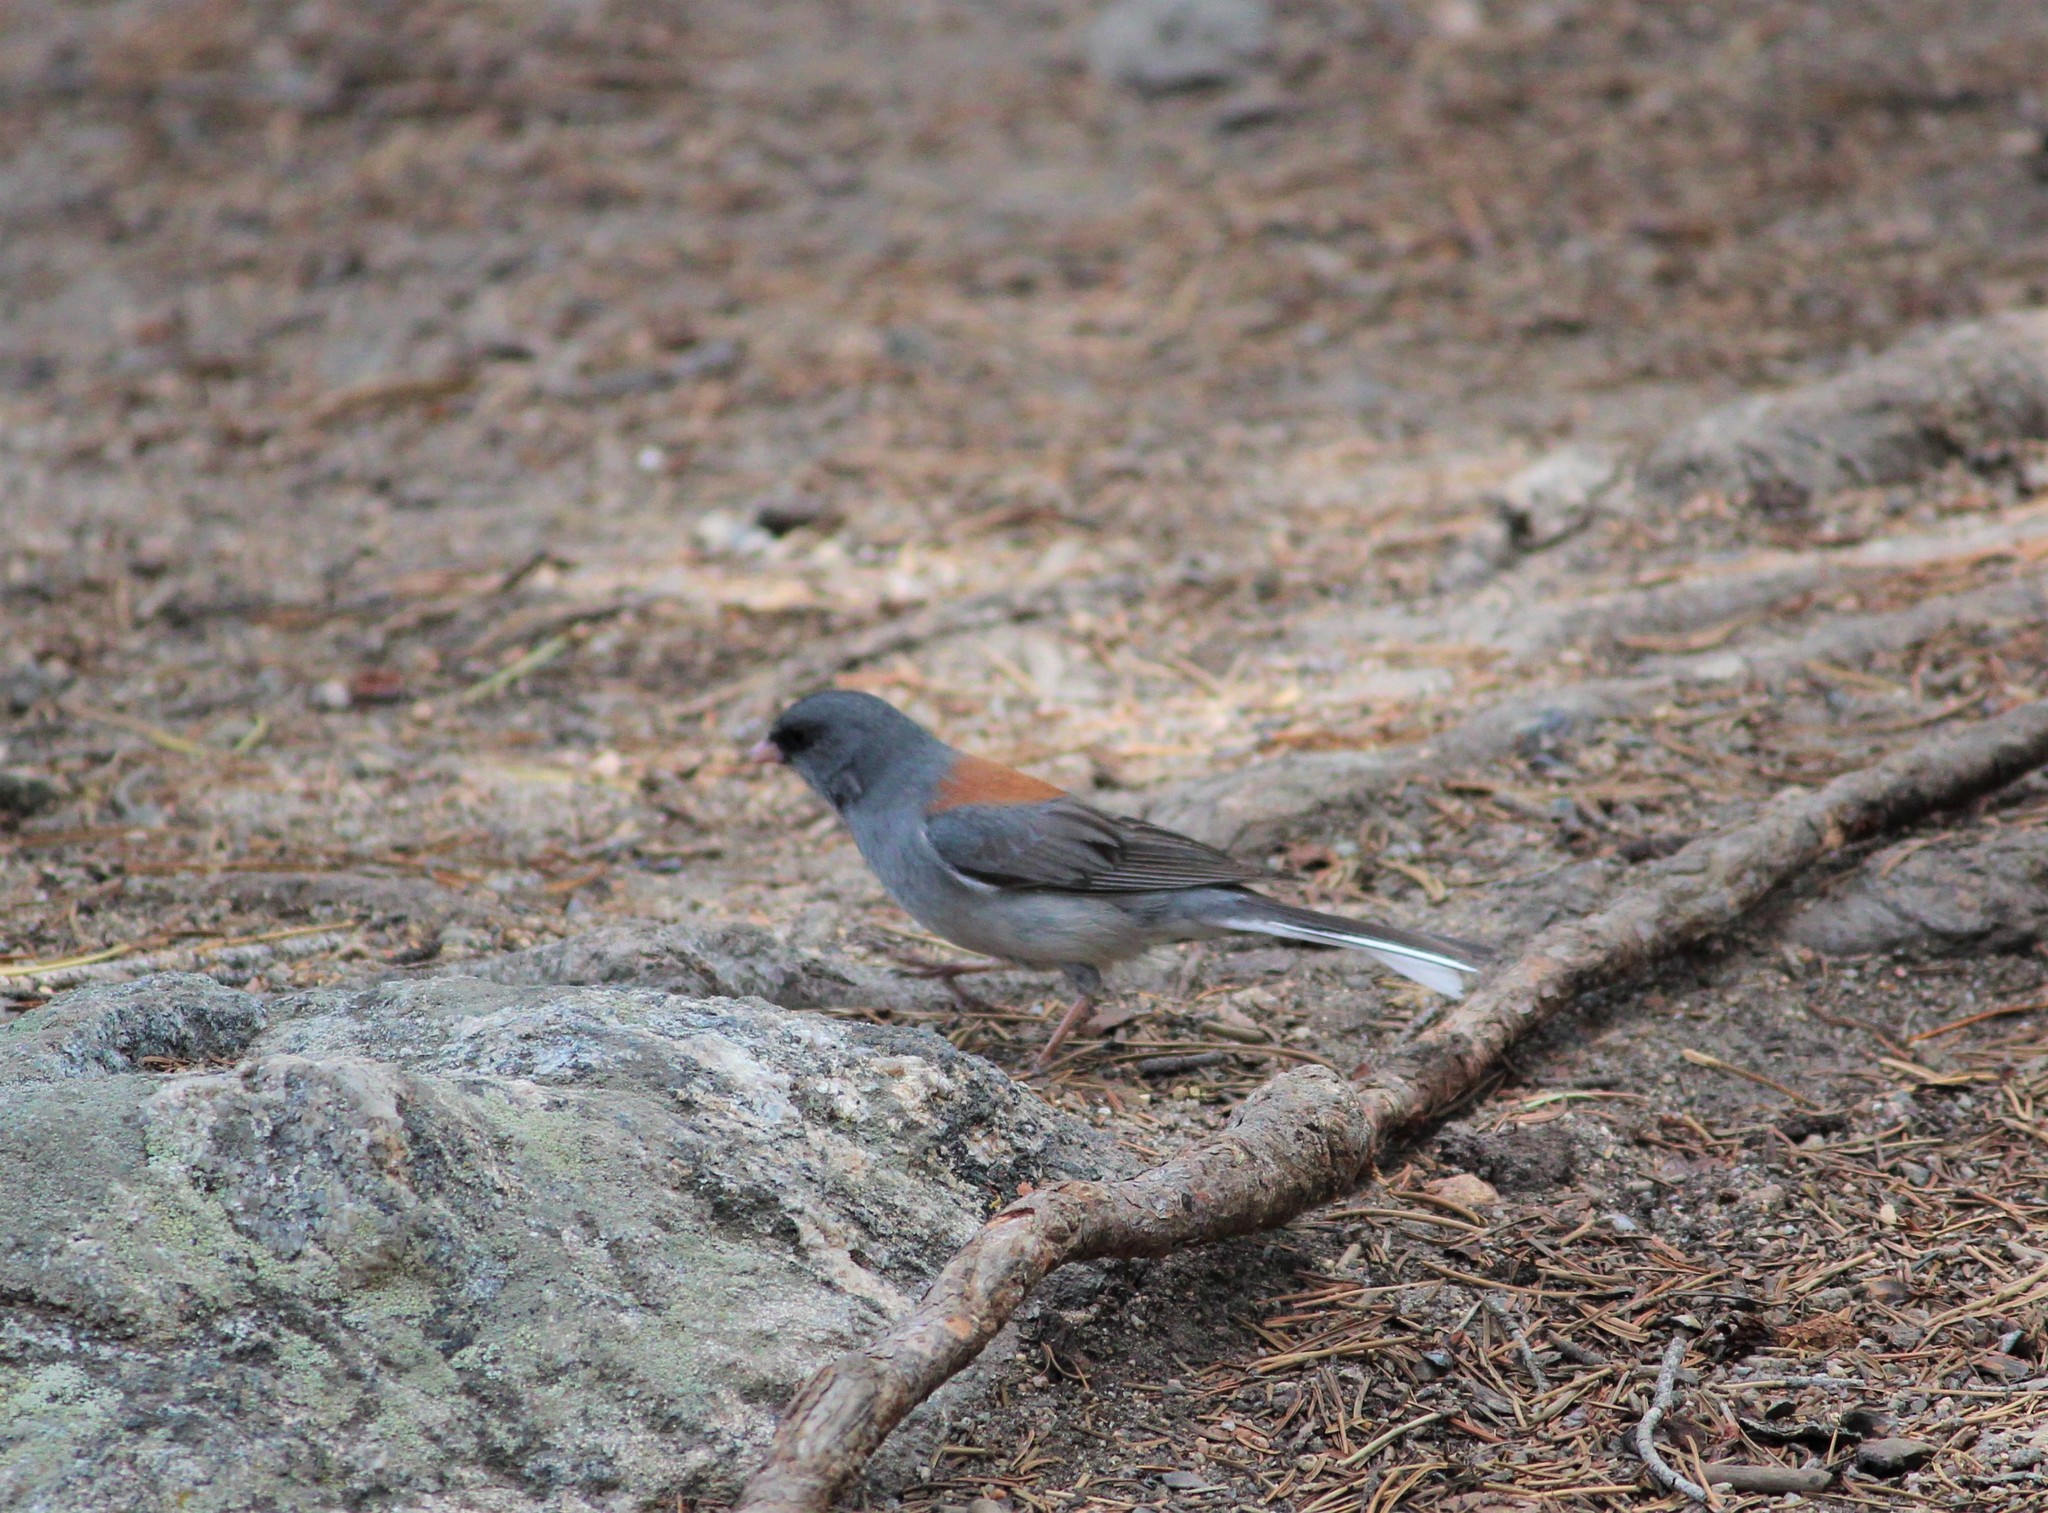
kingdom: Animalia
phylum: Chordata
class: Aves
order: Passeriformes
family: Passerellidae
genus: Junco
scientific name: Junco hyemalis
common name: Dark-eyed junco
